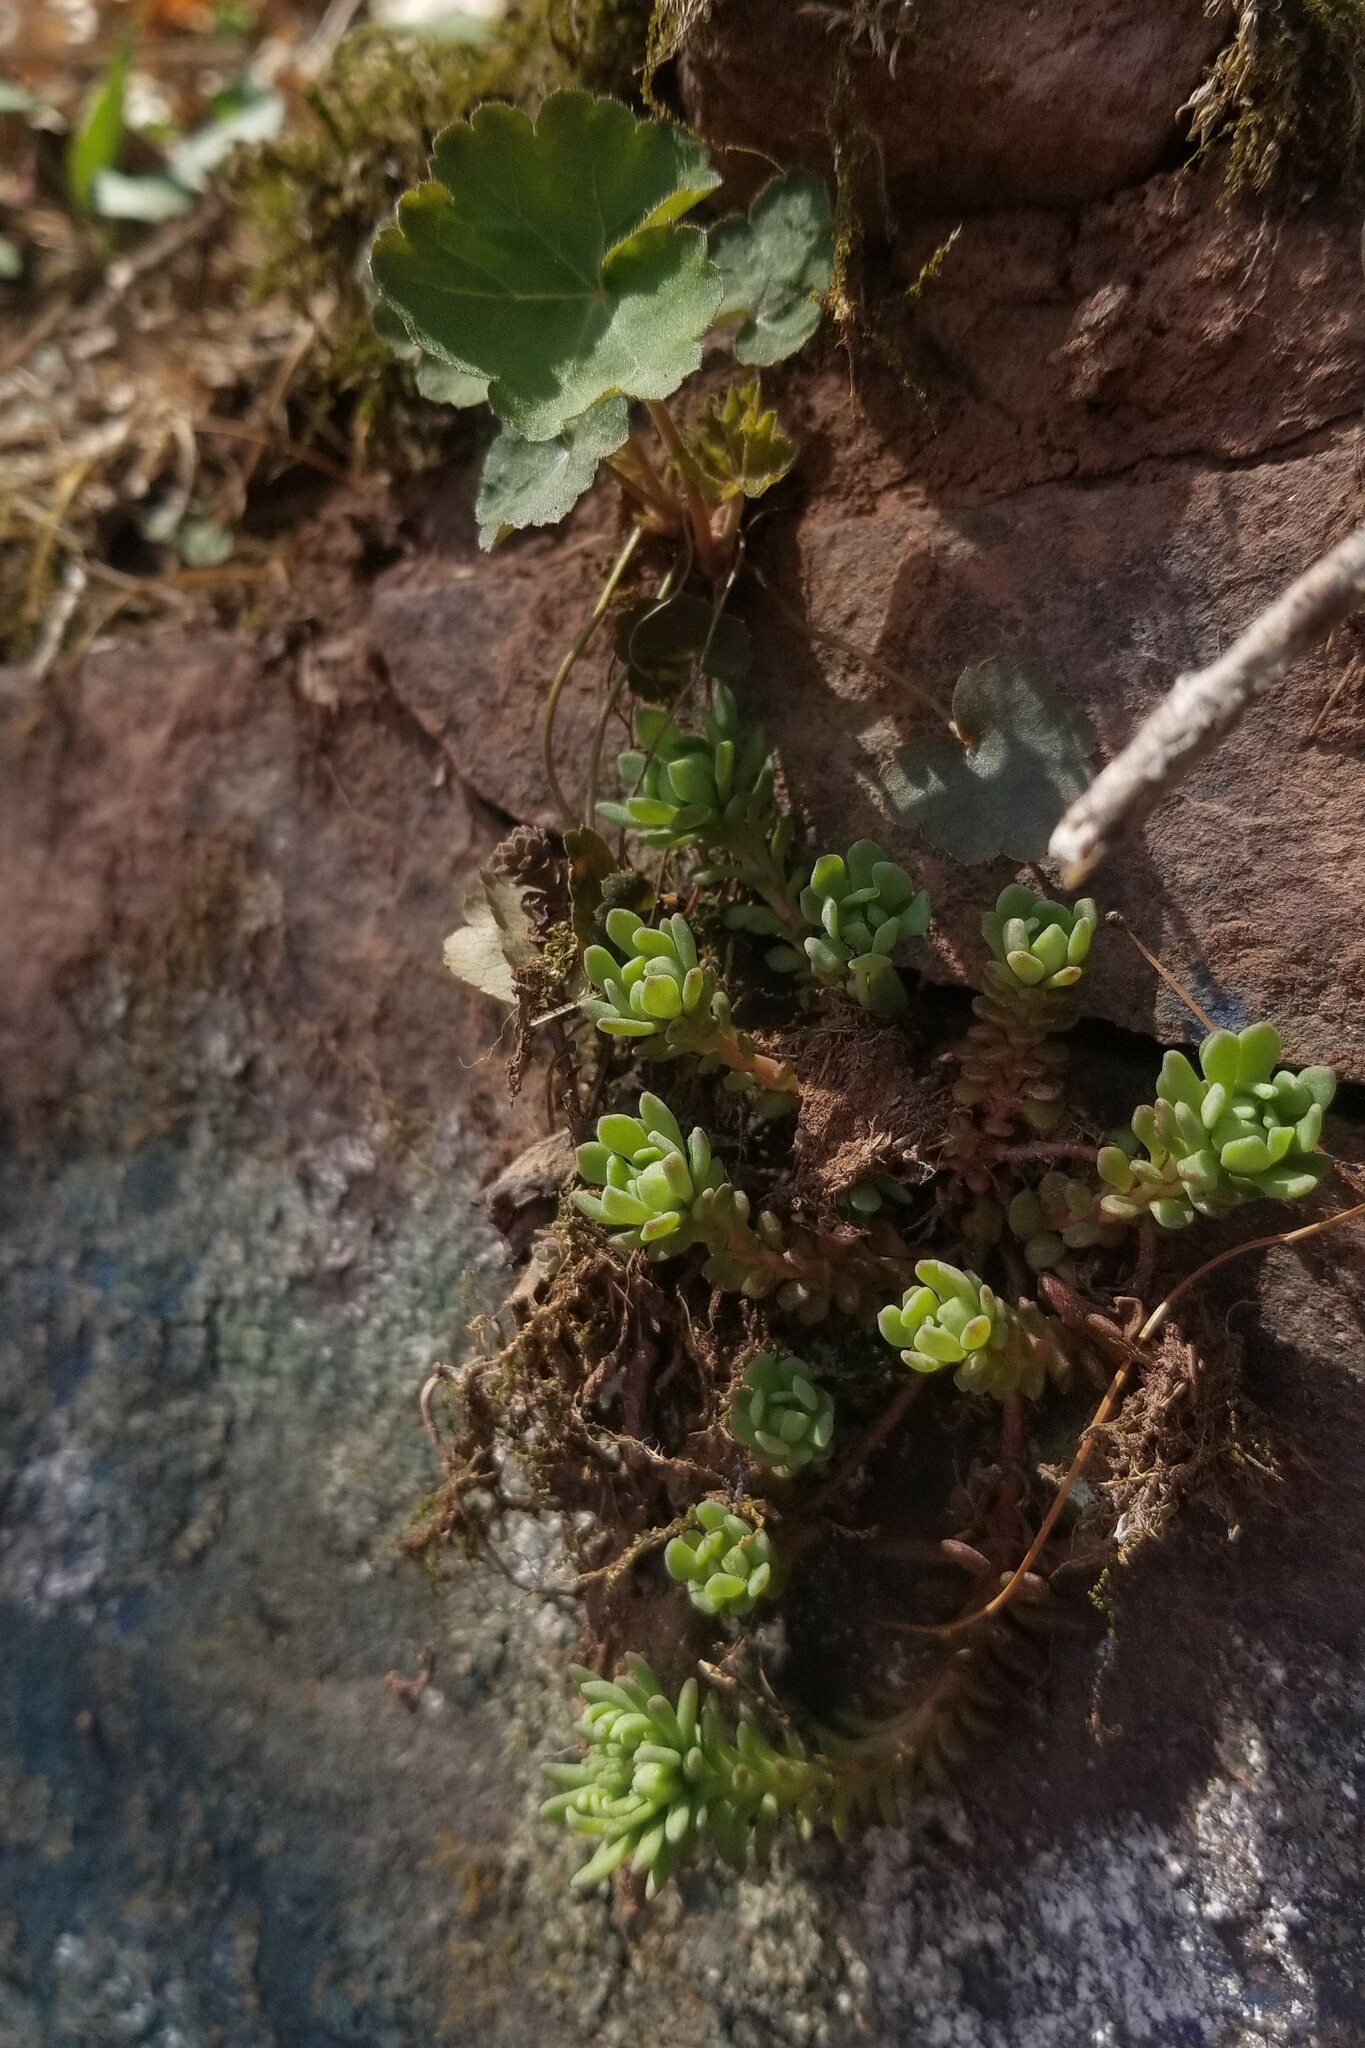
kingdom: Plantae
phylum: Tracheophyta
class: Magnoliopsida
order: Saxifragales
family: Crassulaceae
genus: Sedum
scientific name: Sedum glaucophyllum
